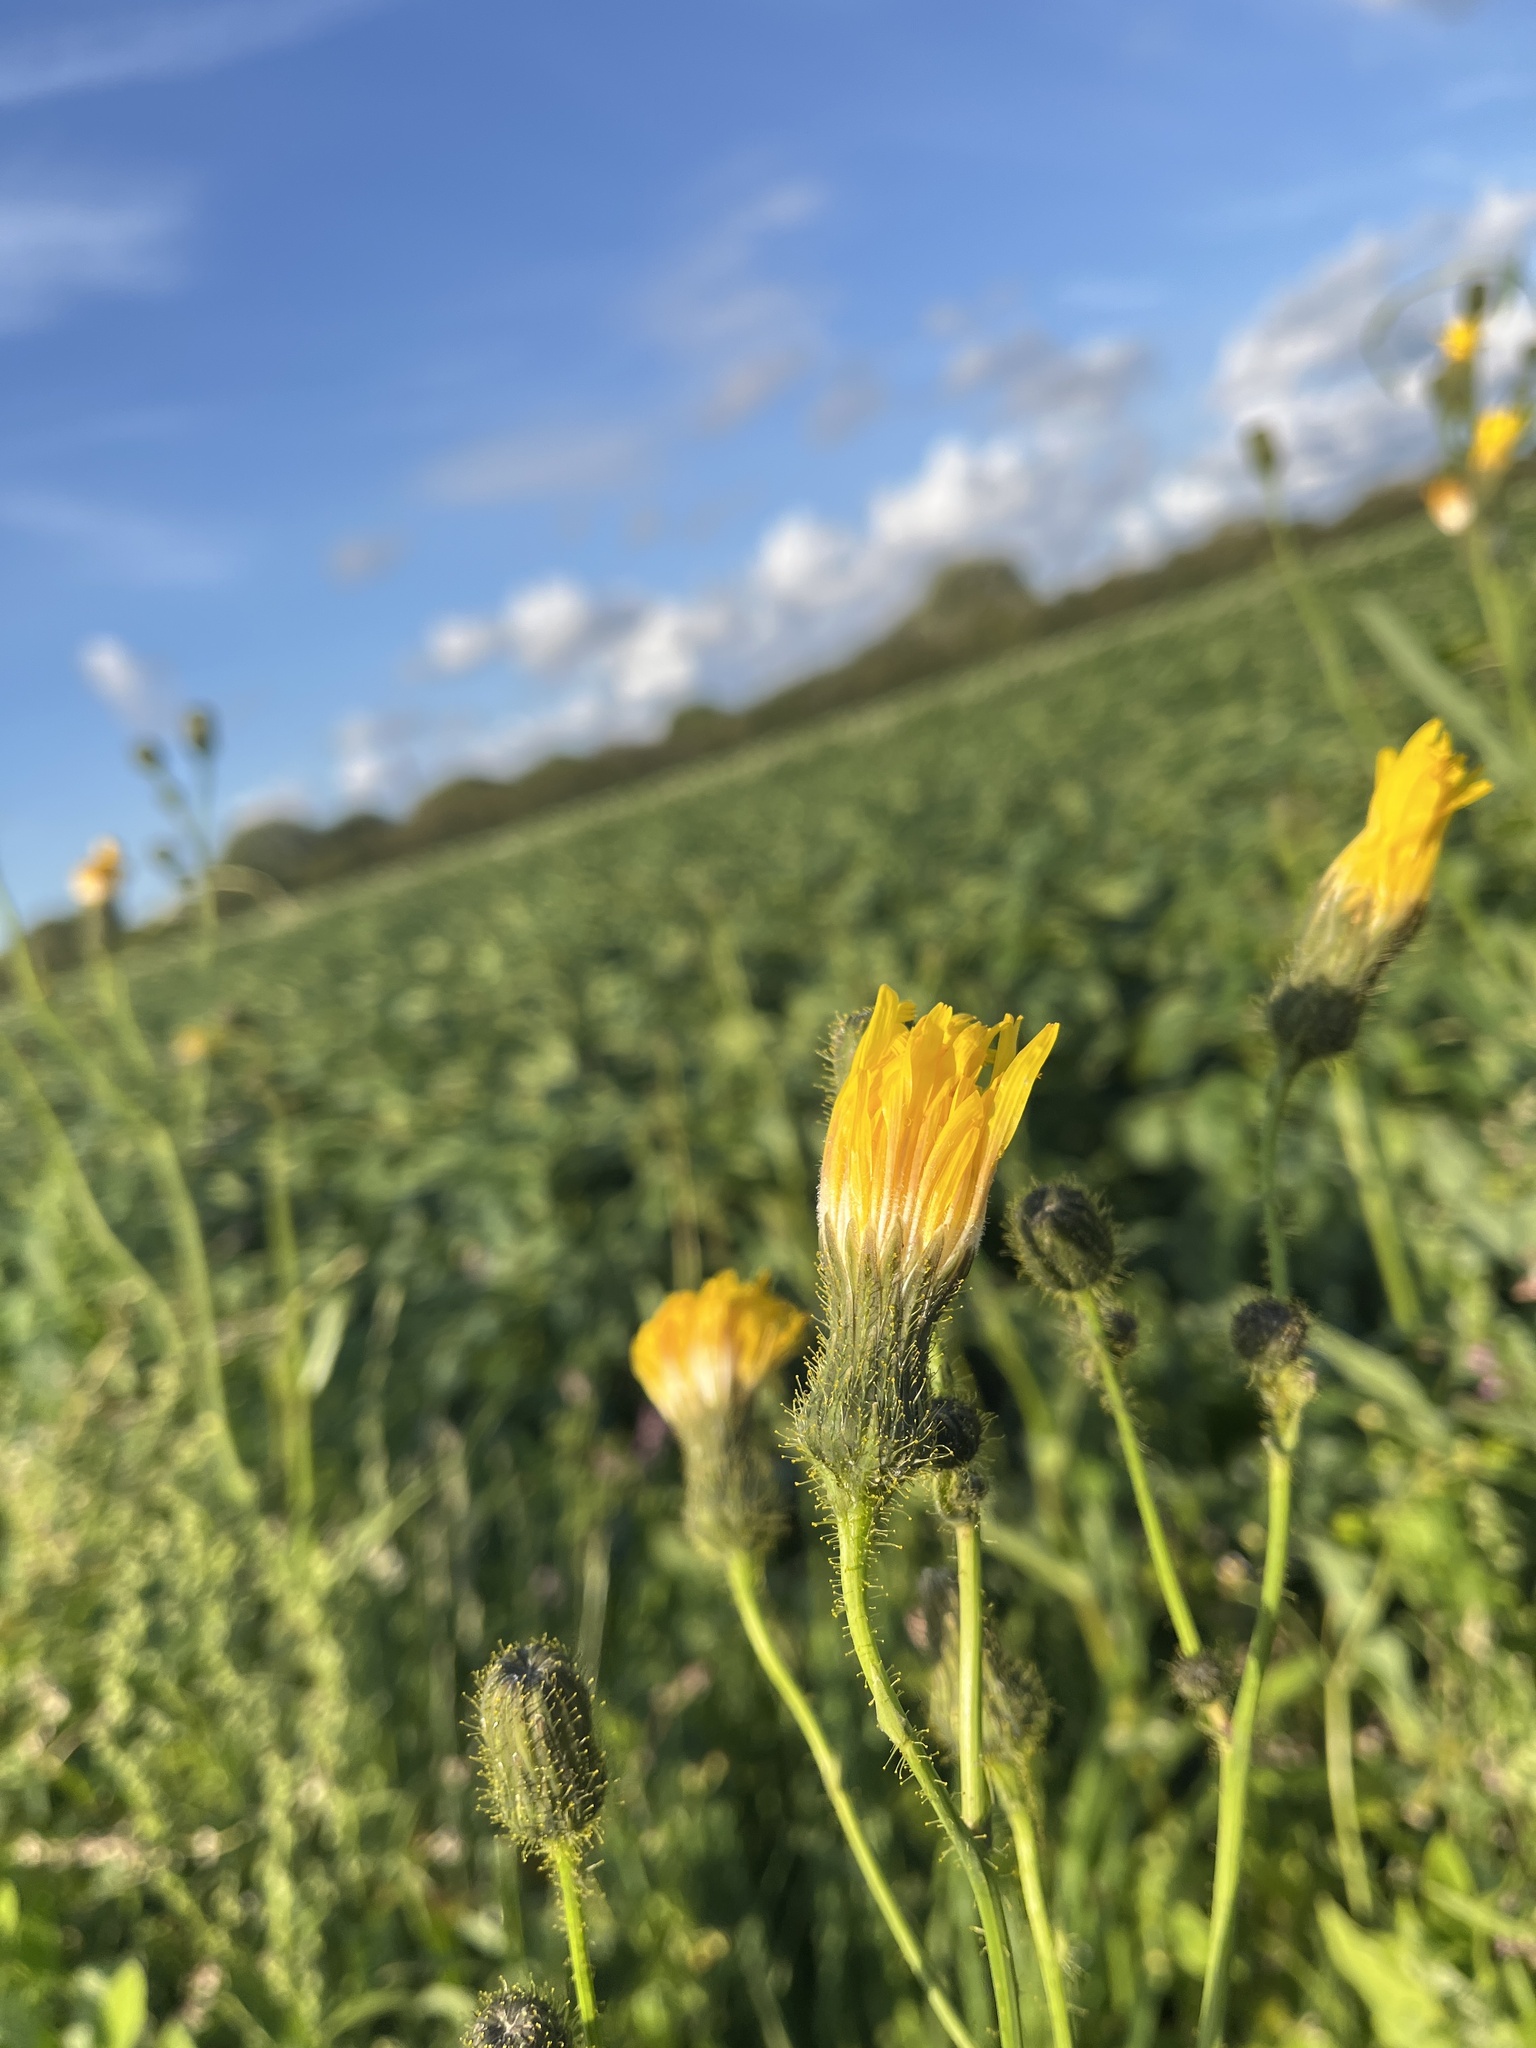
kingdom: Plantae
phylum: Tracheophyta
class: Magnoliopsida
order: Asterales
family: Asteraceae
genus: Sonchus
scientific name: Sonchus arvensis
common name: Perennial sow-thistle
